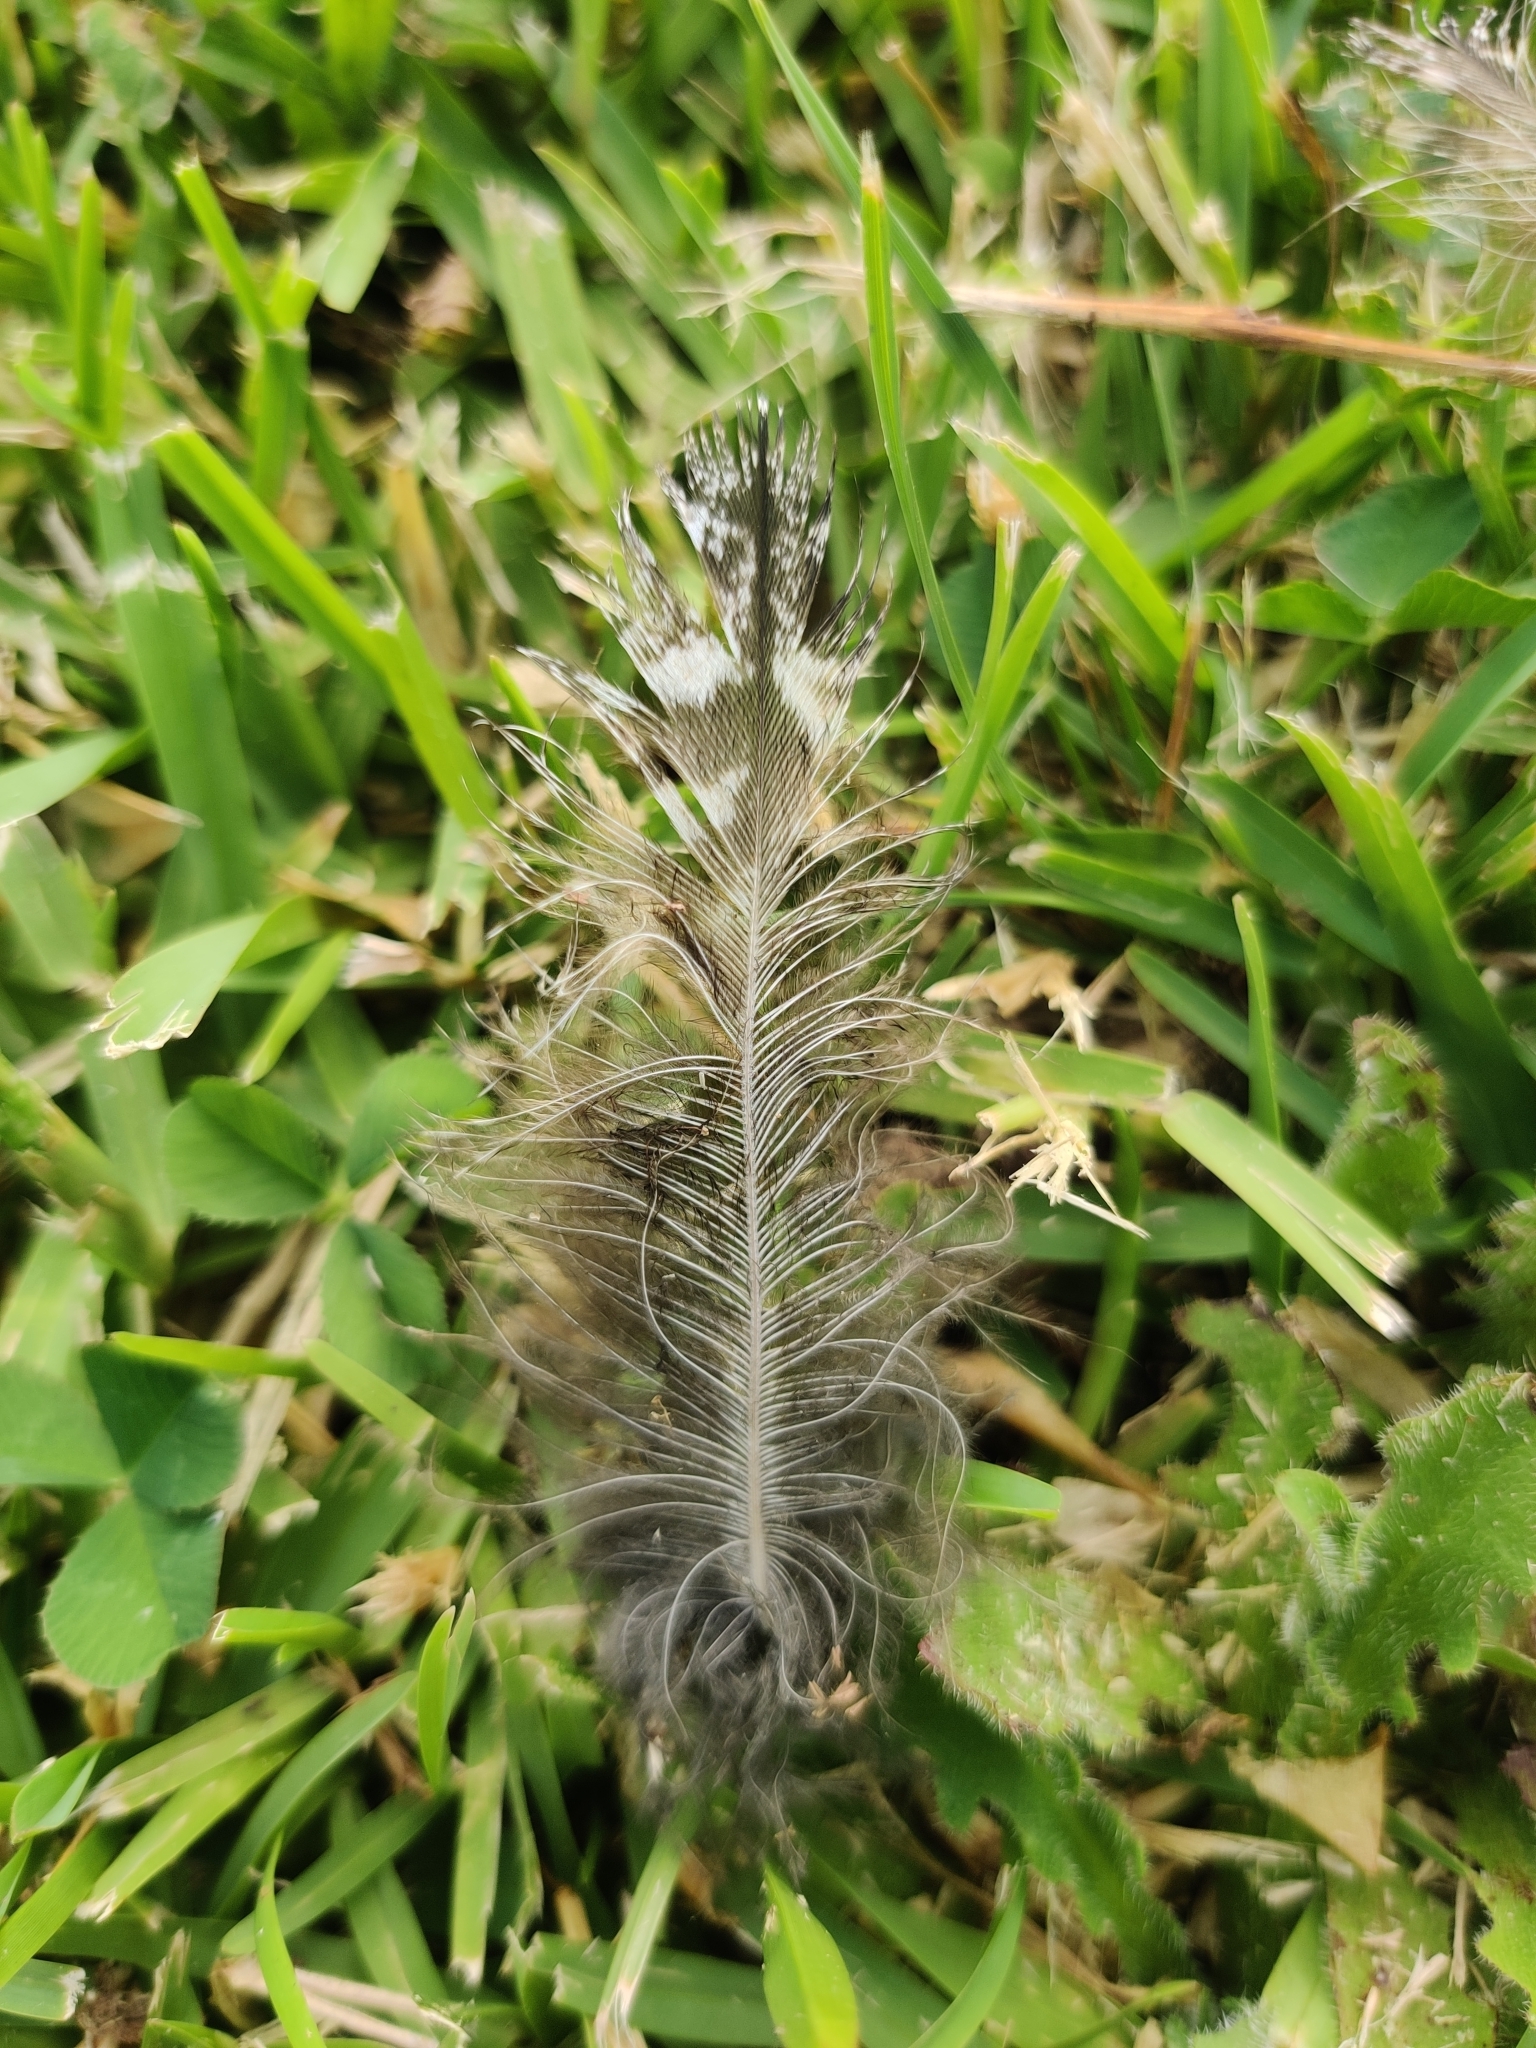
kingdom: Animalia
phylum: Chordata
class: Aves
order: Caprimulgiformes
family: Podargidae
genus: Podargus
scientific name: Podargus strigoides
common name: Tawny frogmouth
